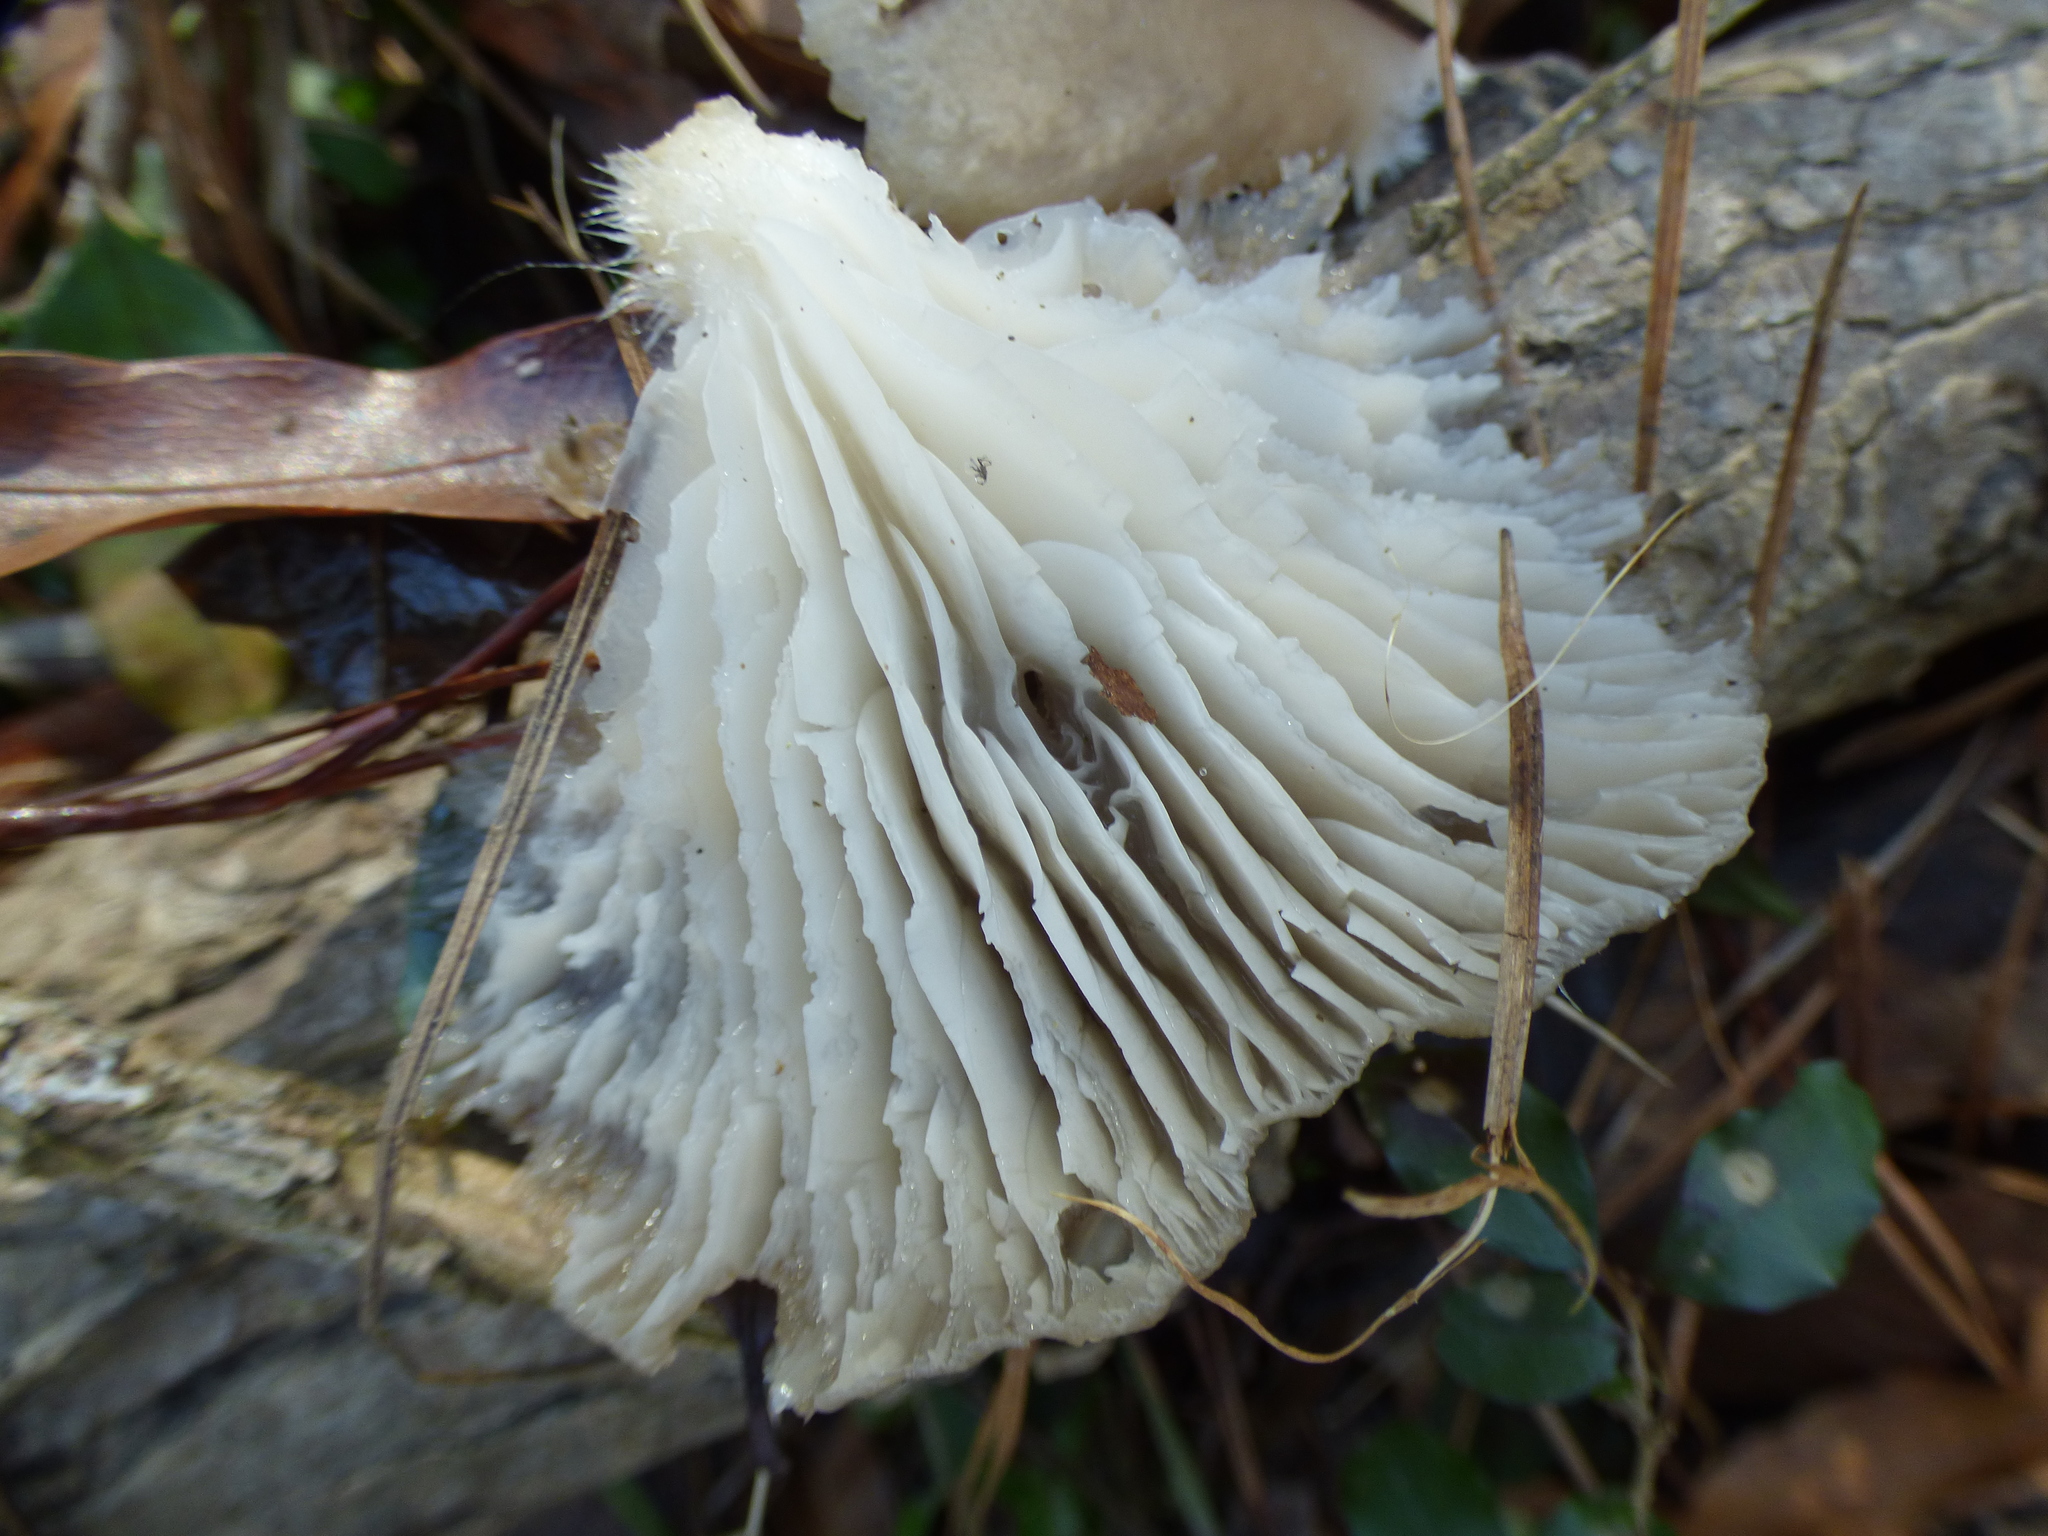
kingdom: Fungi
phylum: Basidiomycota
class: Agaricomycetes
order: Agaricales
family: Pleurotaceae
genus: Pleurotus
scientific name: Pleurotus ostreatus
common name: Oyster mushroom
